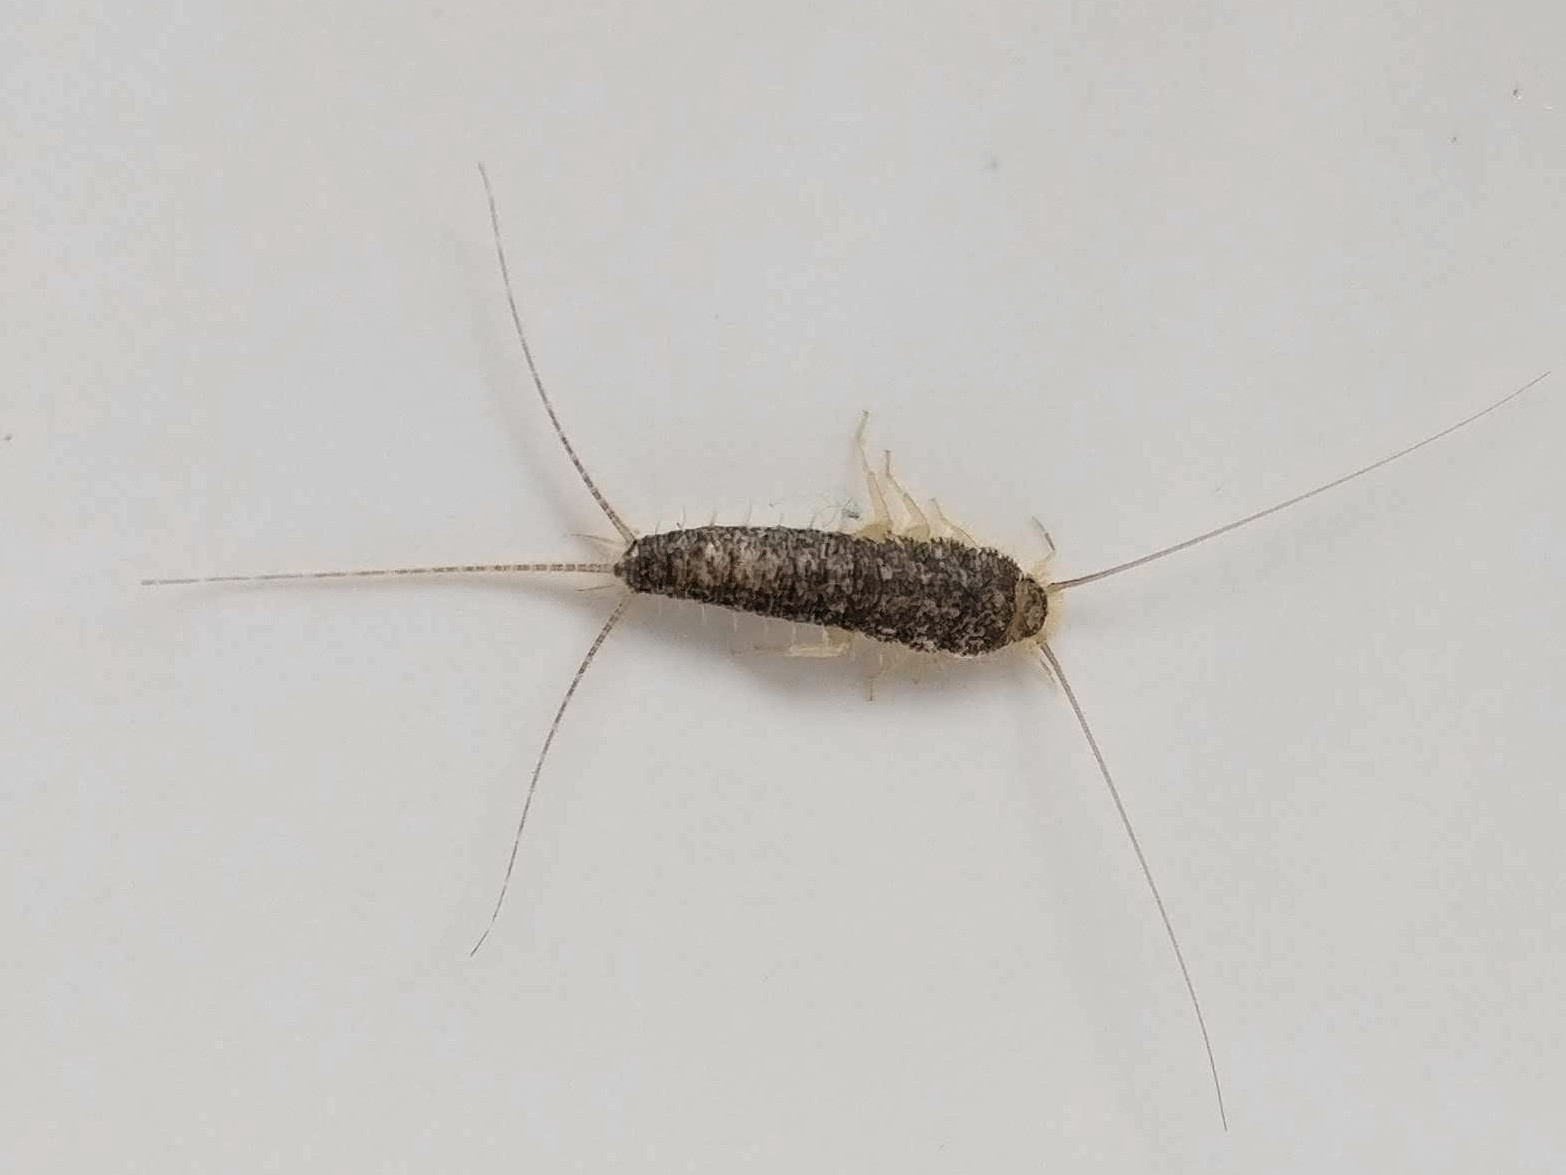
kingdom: Animalia
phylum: Arthropoda
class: Insecta
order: Zygentoma
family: Lepismatidae
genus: Ctenolepisma
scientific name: Ctenolepisma longicaudatum
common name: Silverfish
